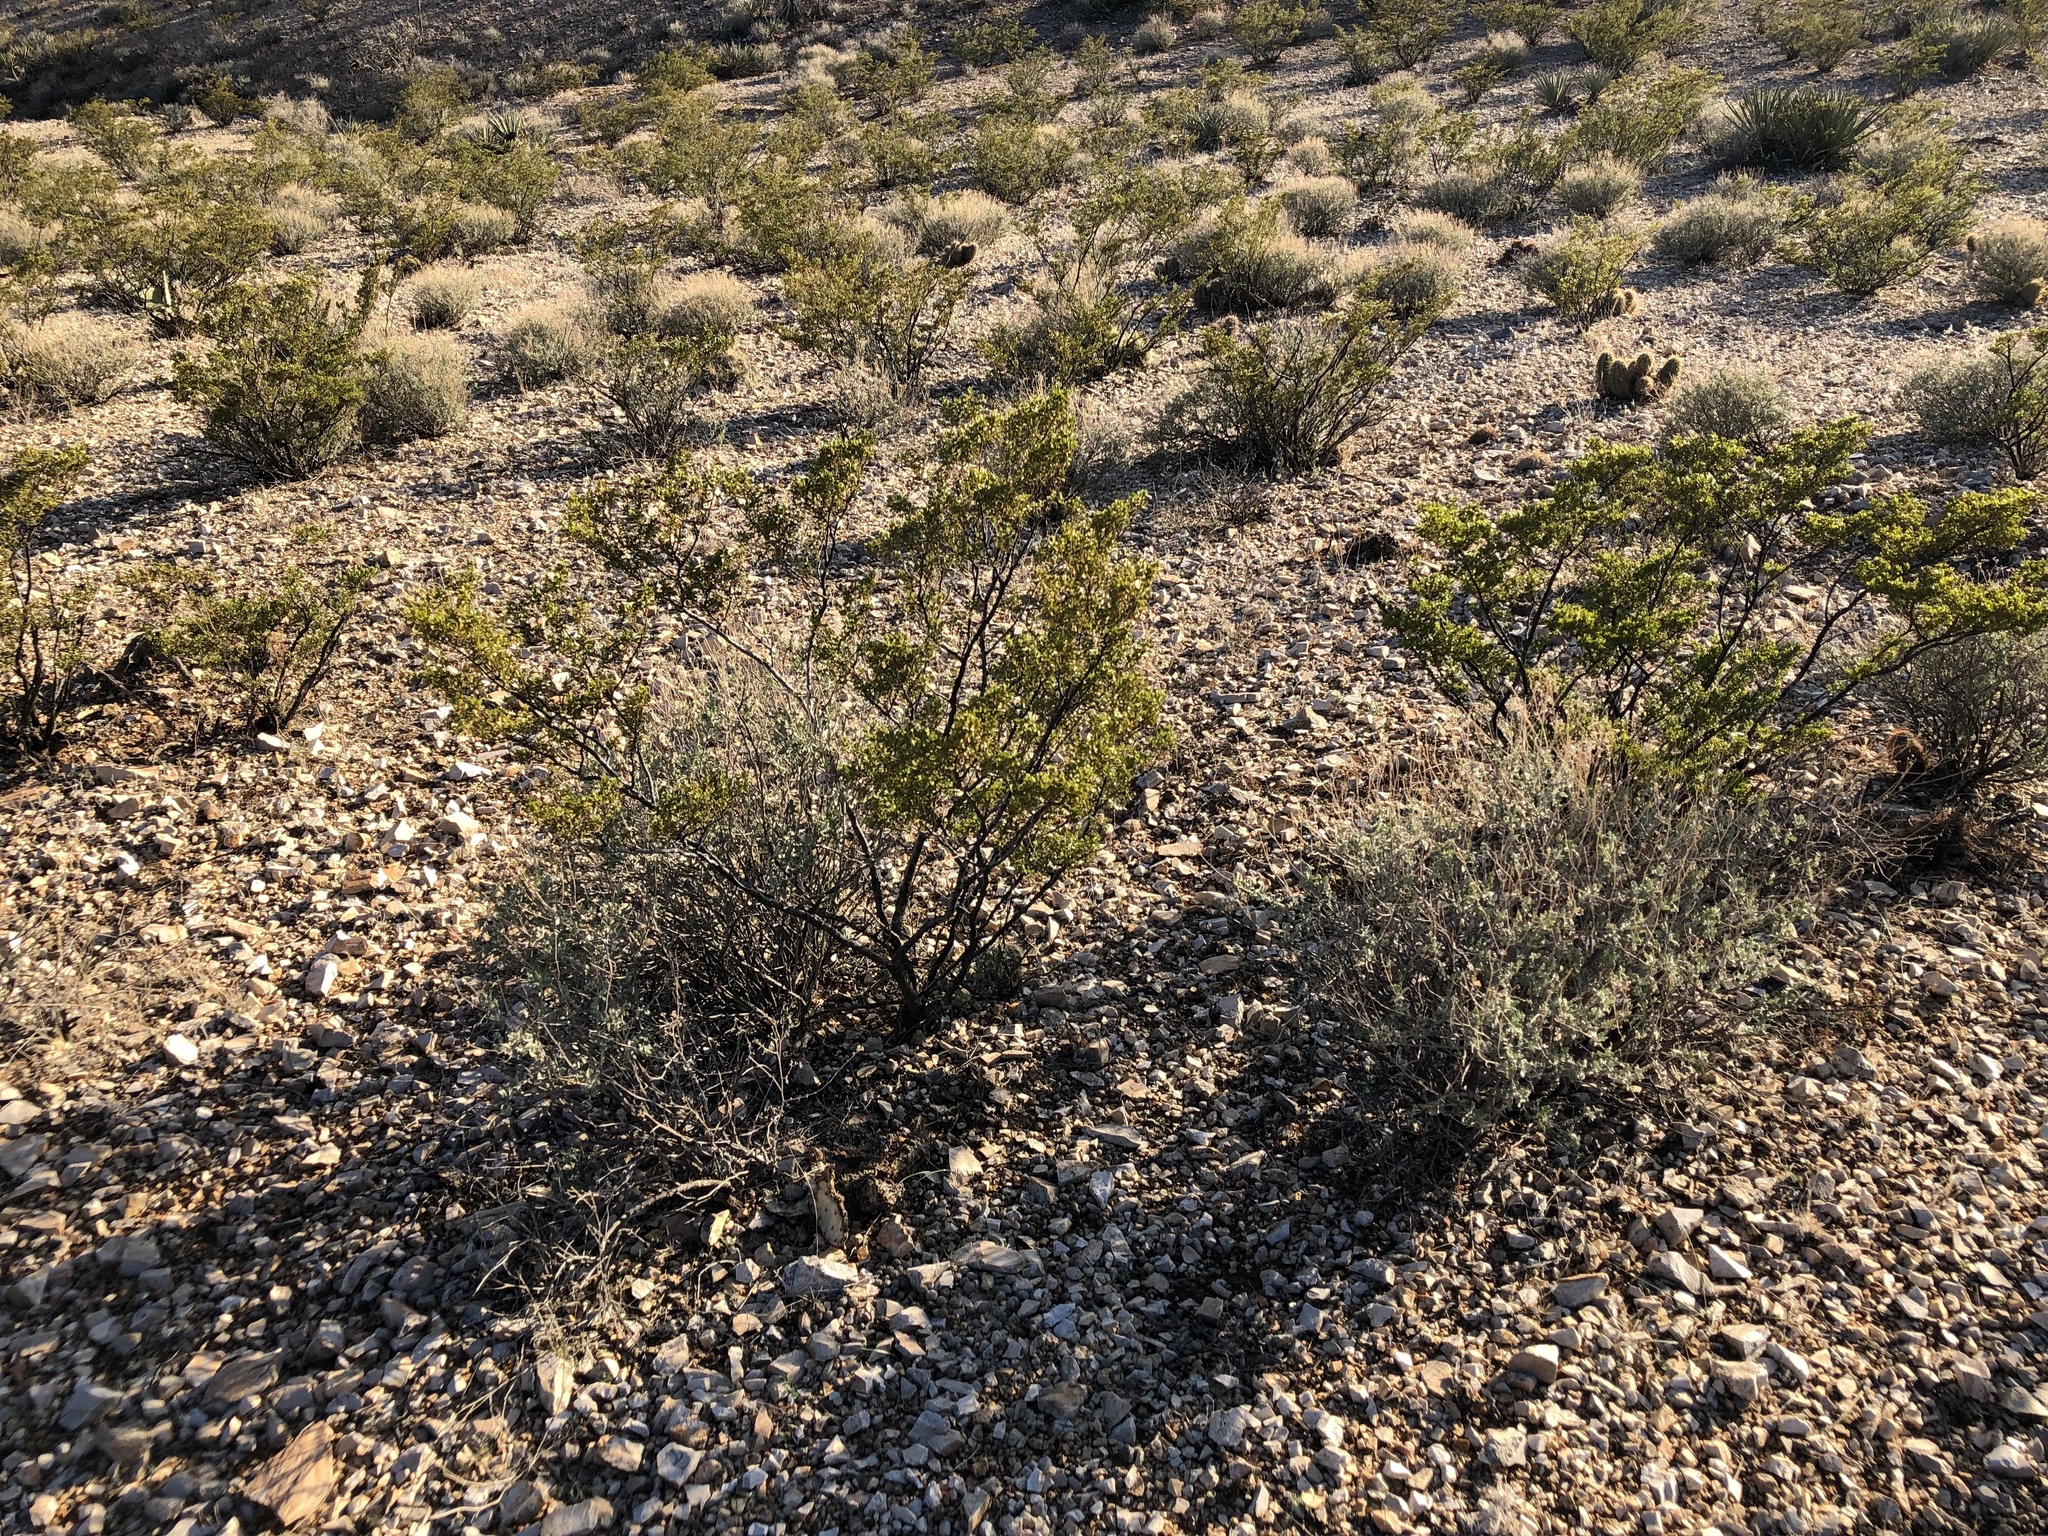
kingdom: Plantae
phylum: Tracheophyta
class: Magnoliopsida
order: Zygophyllales
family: Zygophyllaceae
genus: Larrea
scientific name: Larrea tridentata
